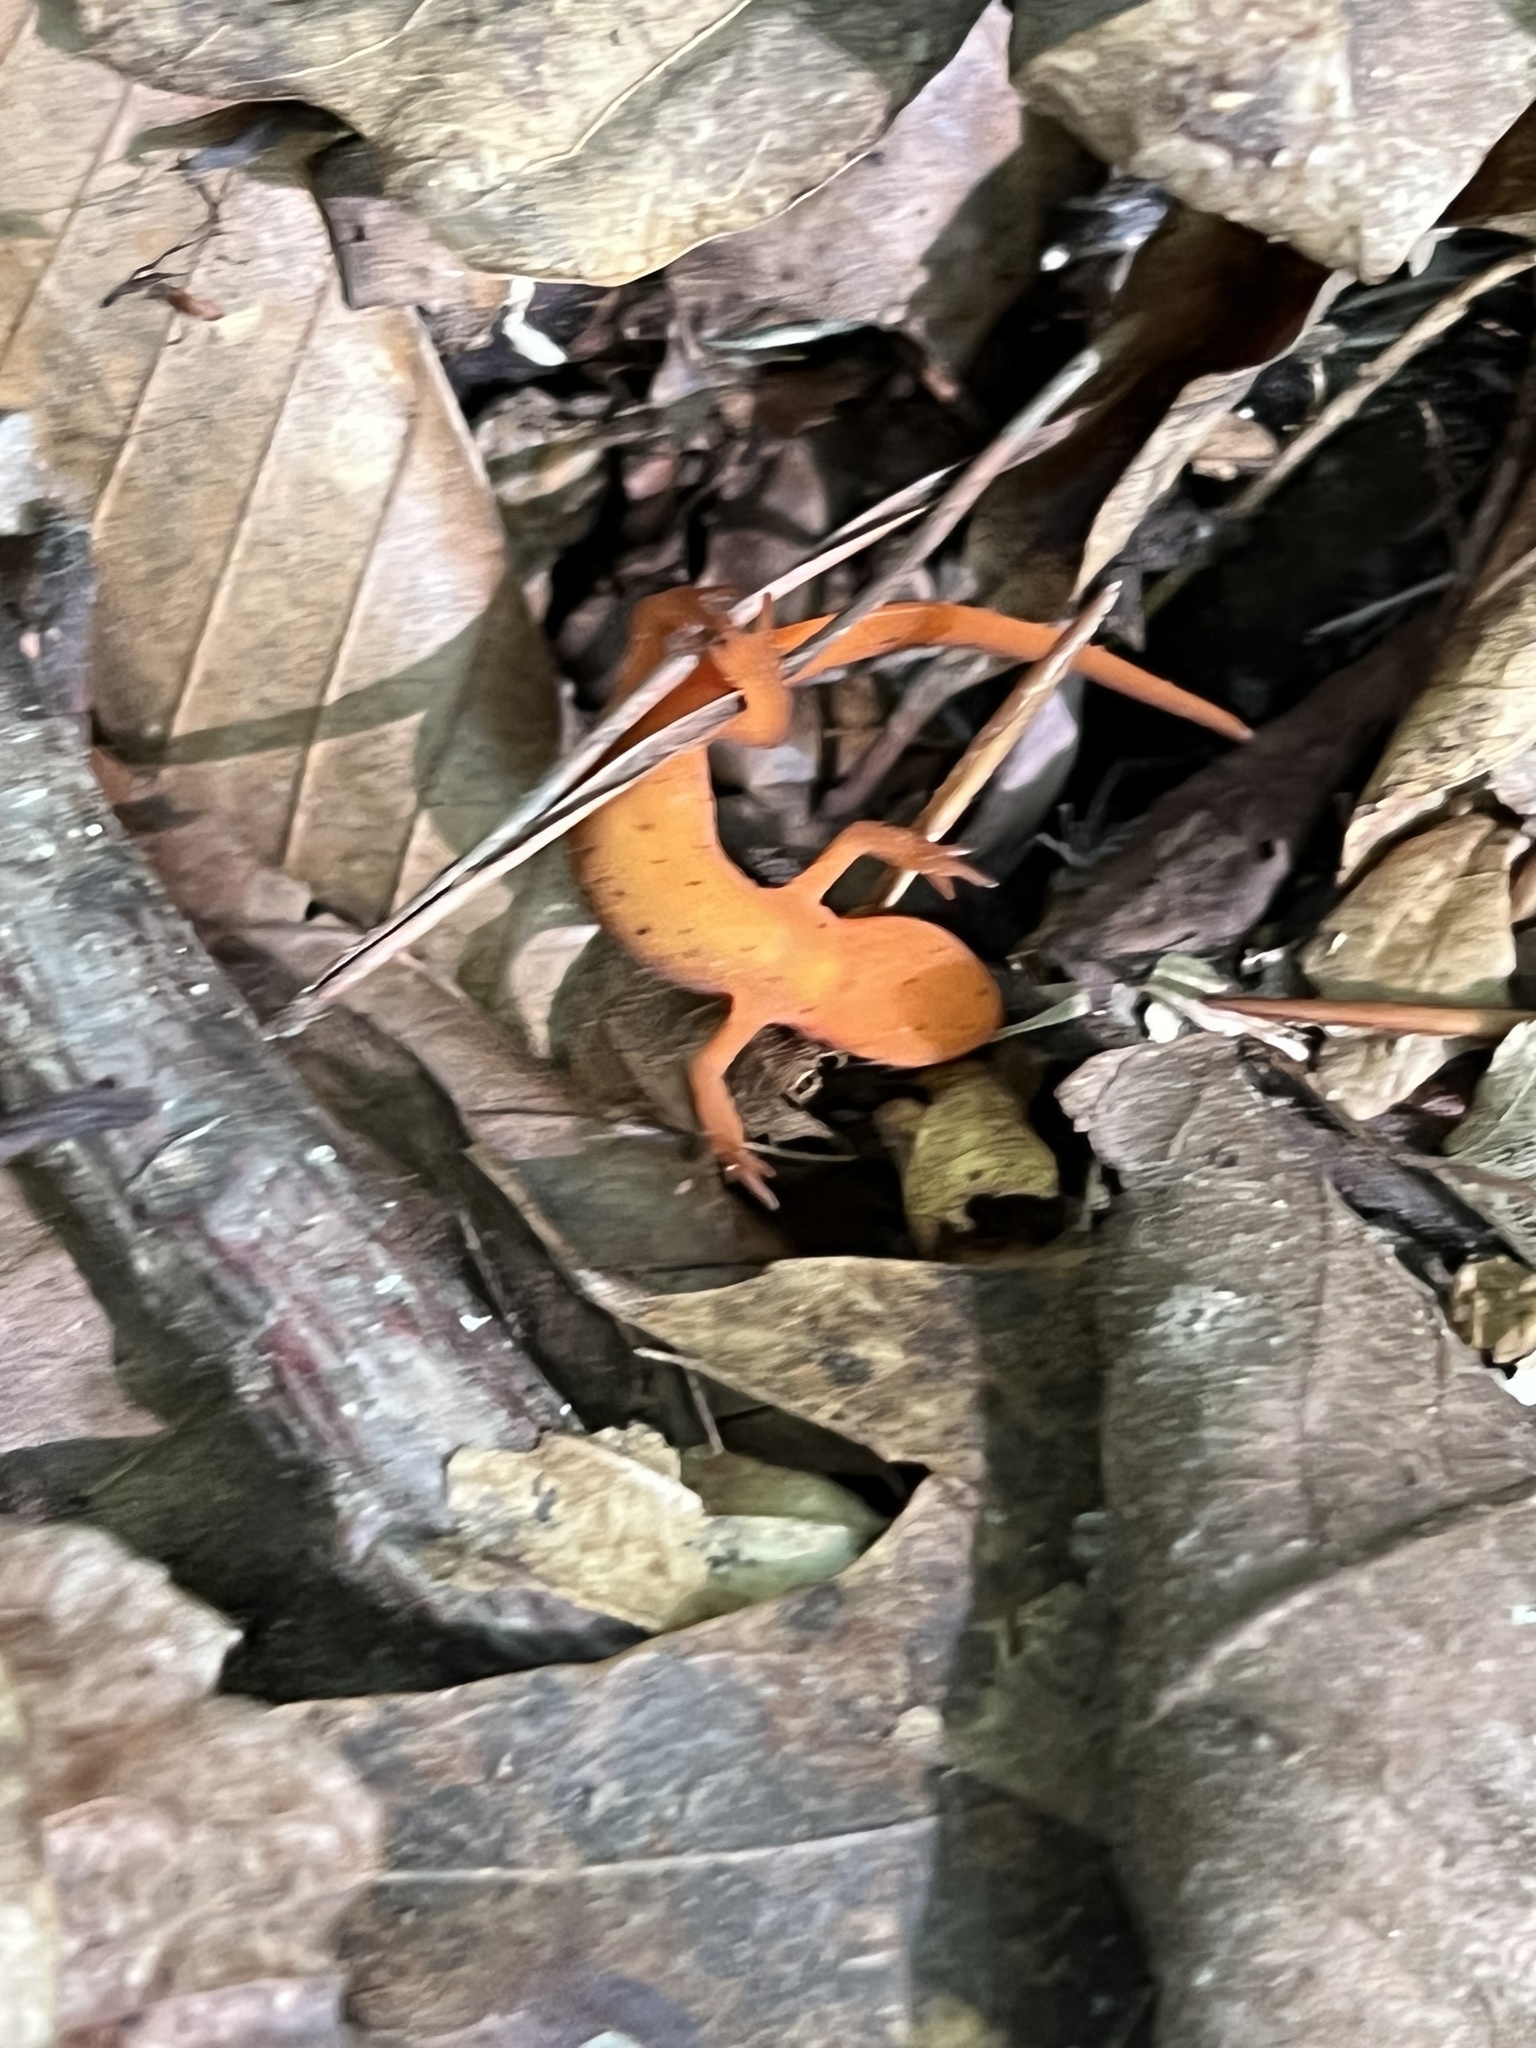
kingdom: Animalia
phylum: Chordata
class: Amphibia
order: Caudata
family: Salamandridae
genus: Notophthalmus
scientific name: Notophthalmus viridescens
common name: Eastern newt
